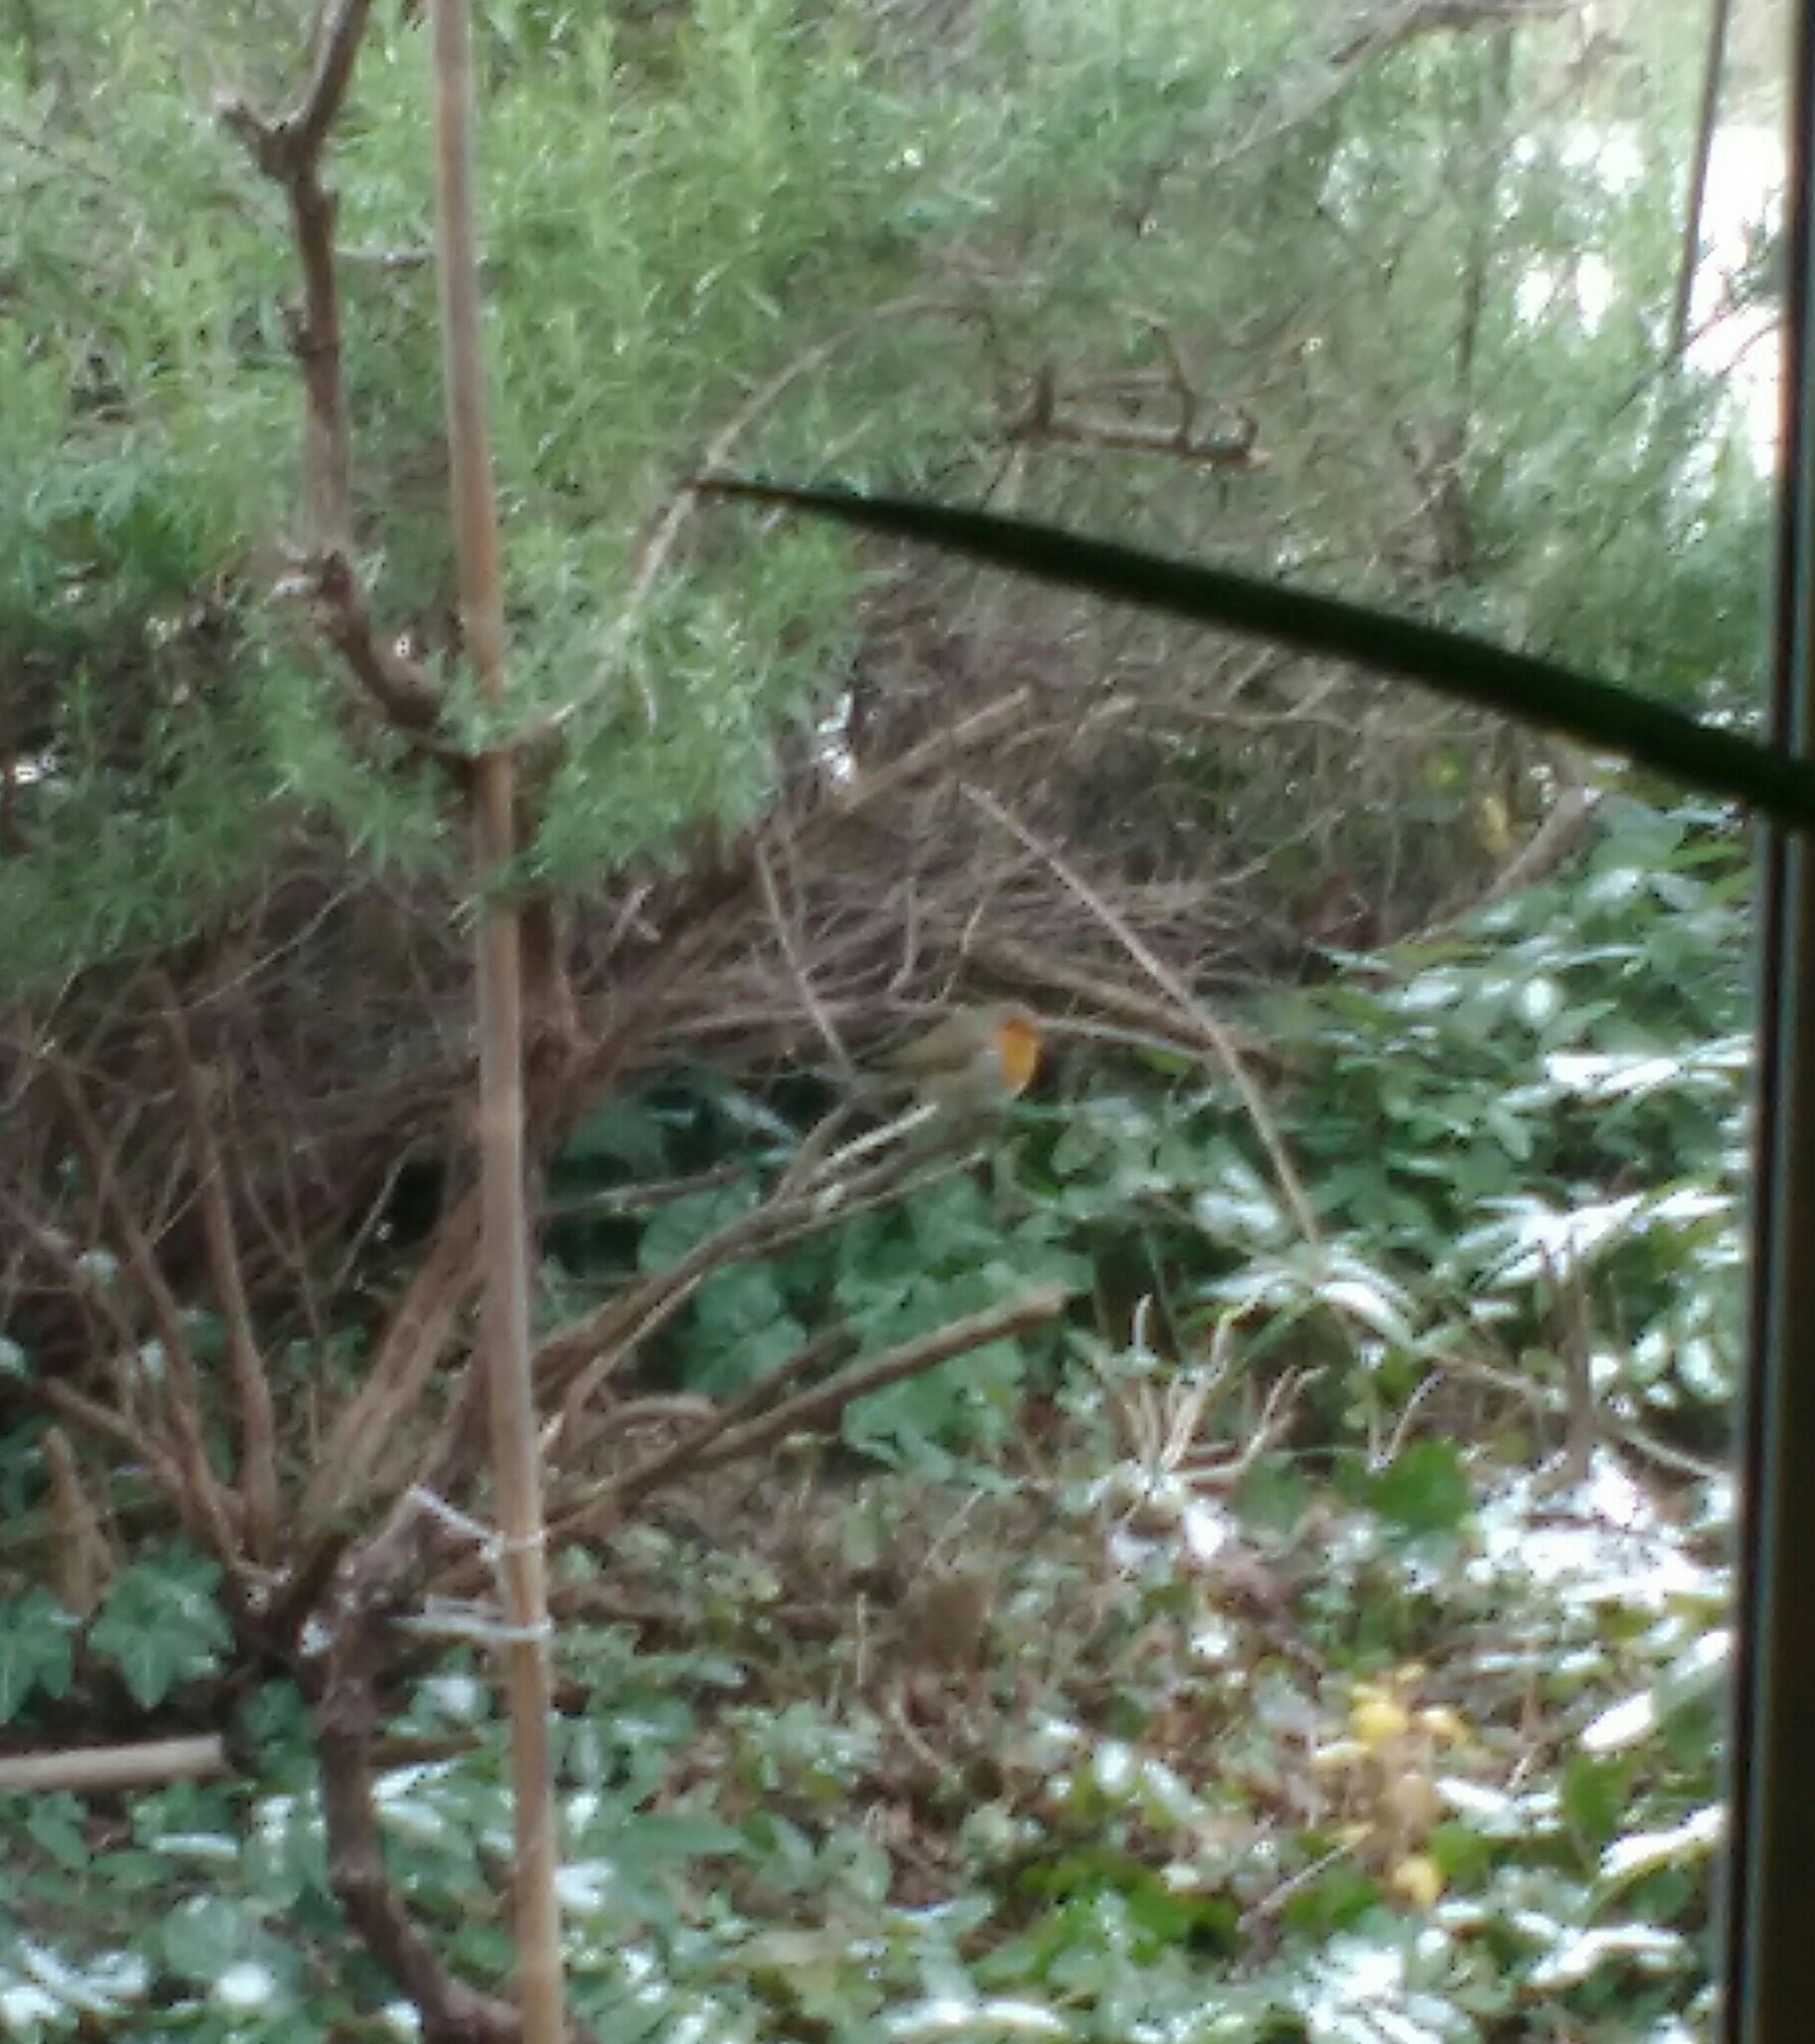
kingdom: Animalia
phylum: Chordata
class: Aves
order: Passeriformes
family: Muscicapidae
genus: Erithacus
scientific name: Erithacus rubecula
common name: European robin
